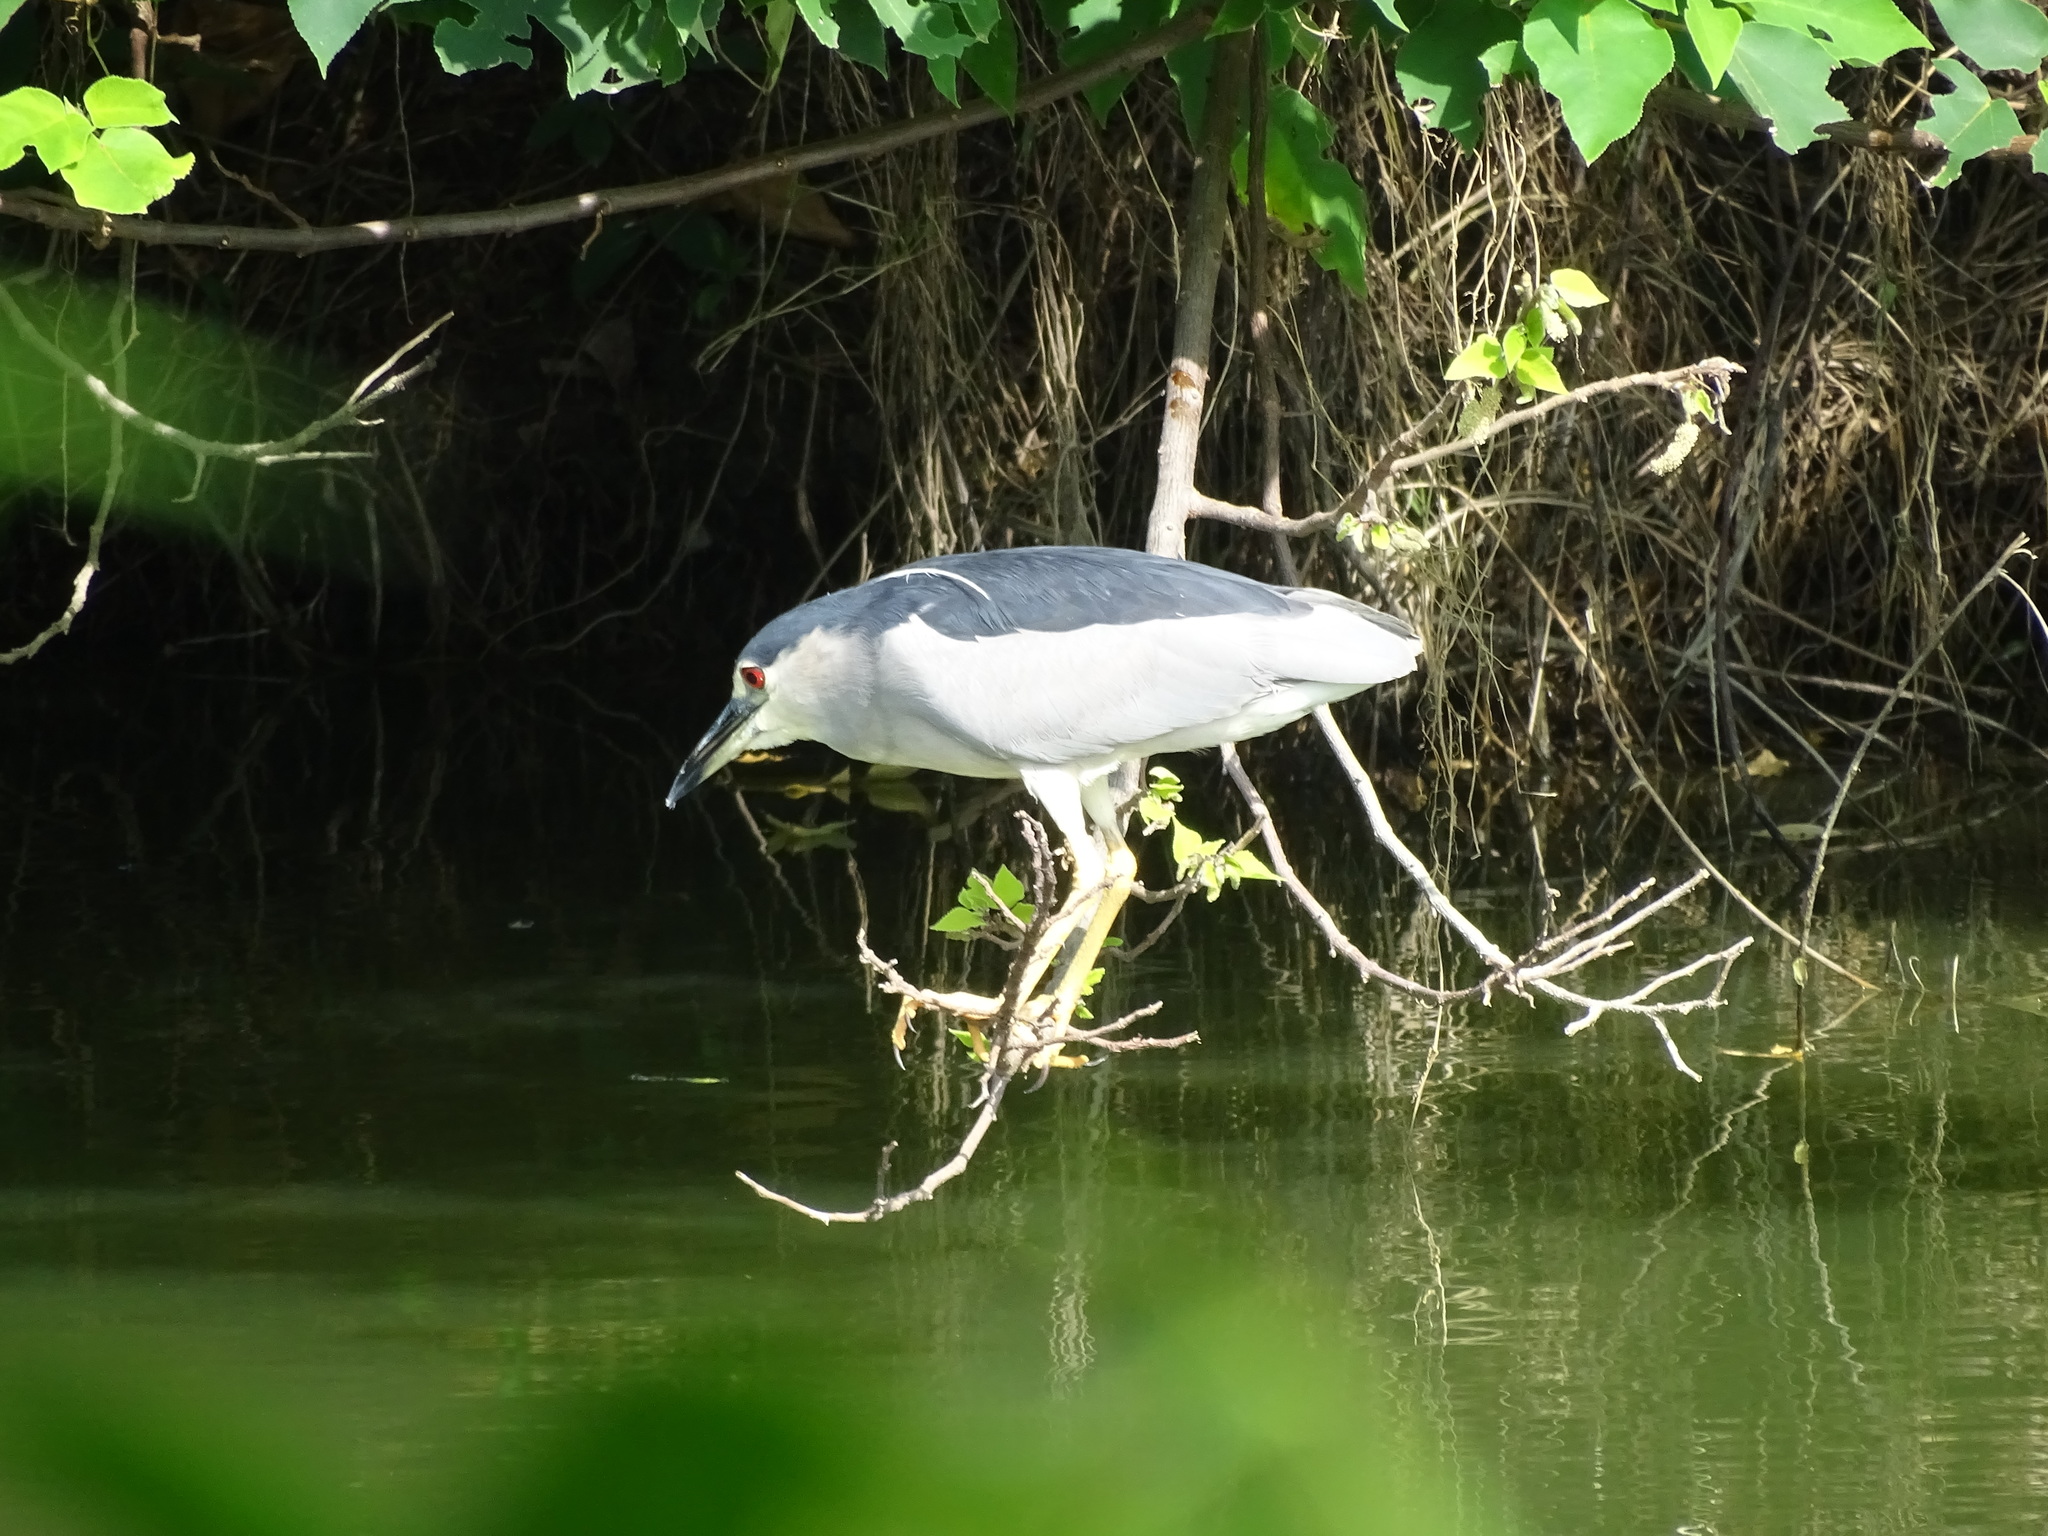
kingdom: Animalia
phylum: Chordata
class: Aves
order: Pelecaniformes
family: Ardeidae
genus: Nycticorax
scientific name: Nycticorax nycticorax
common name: Black-crowned night heron
